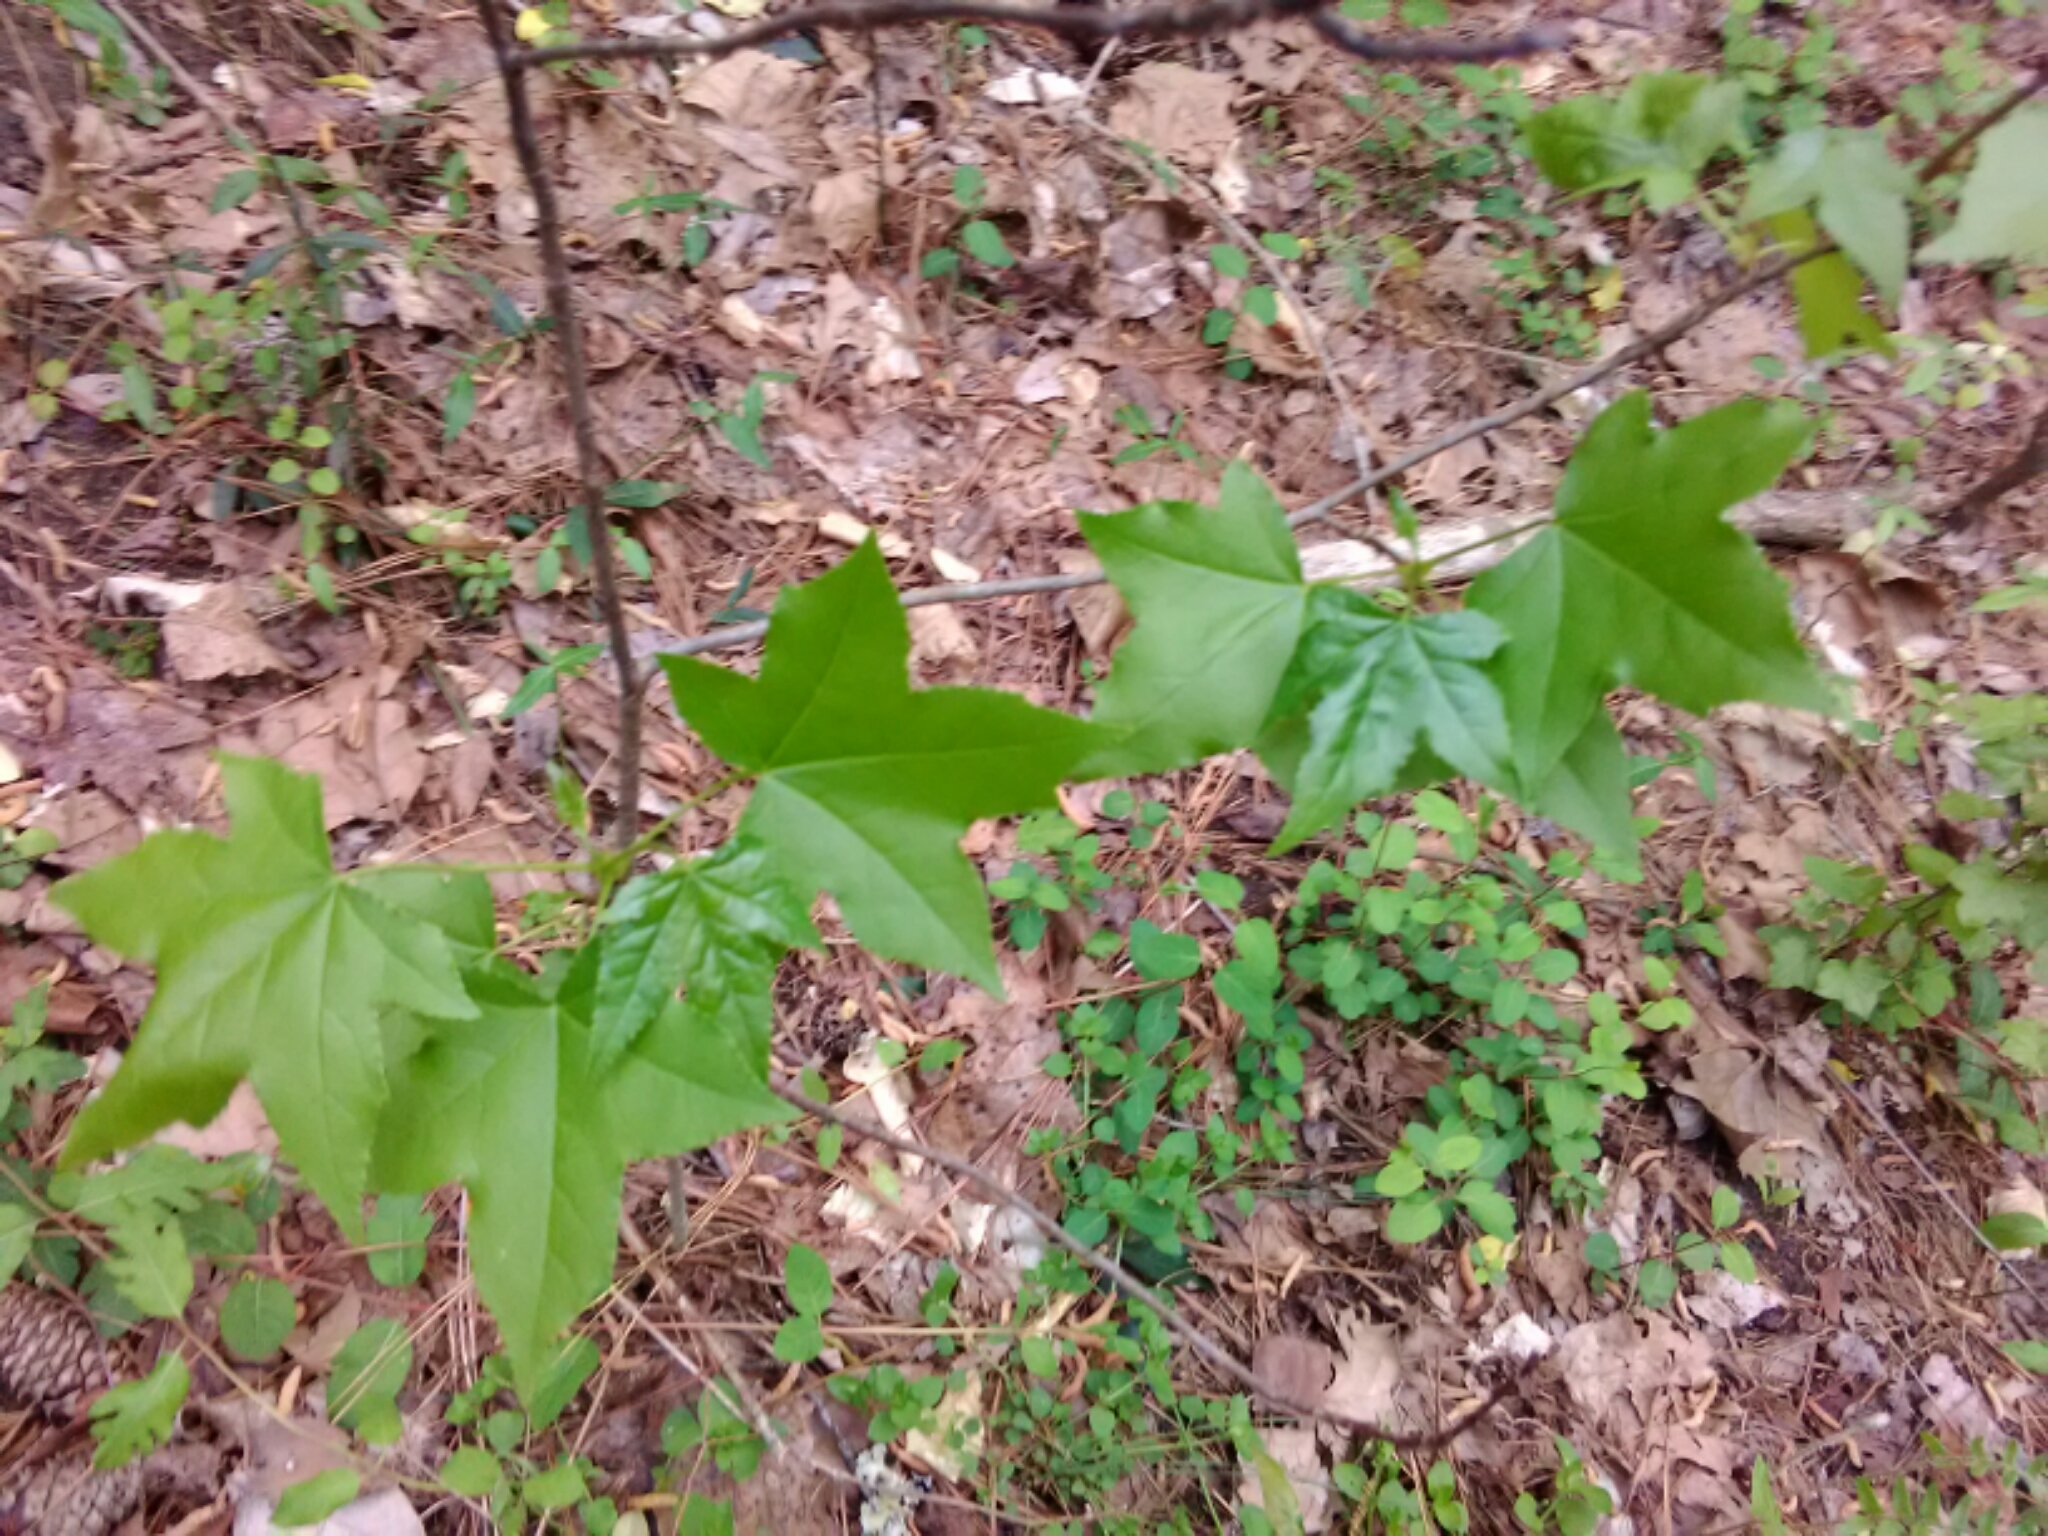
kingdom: Plantae
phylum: Tracheophyta
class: Magnoliopsida
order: Saxifragales
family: Altingiaceae
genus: Liquidambar
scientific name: Liquidambar styraciflua
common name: Sweet gum
